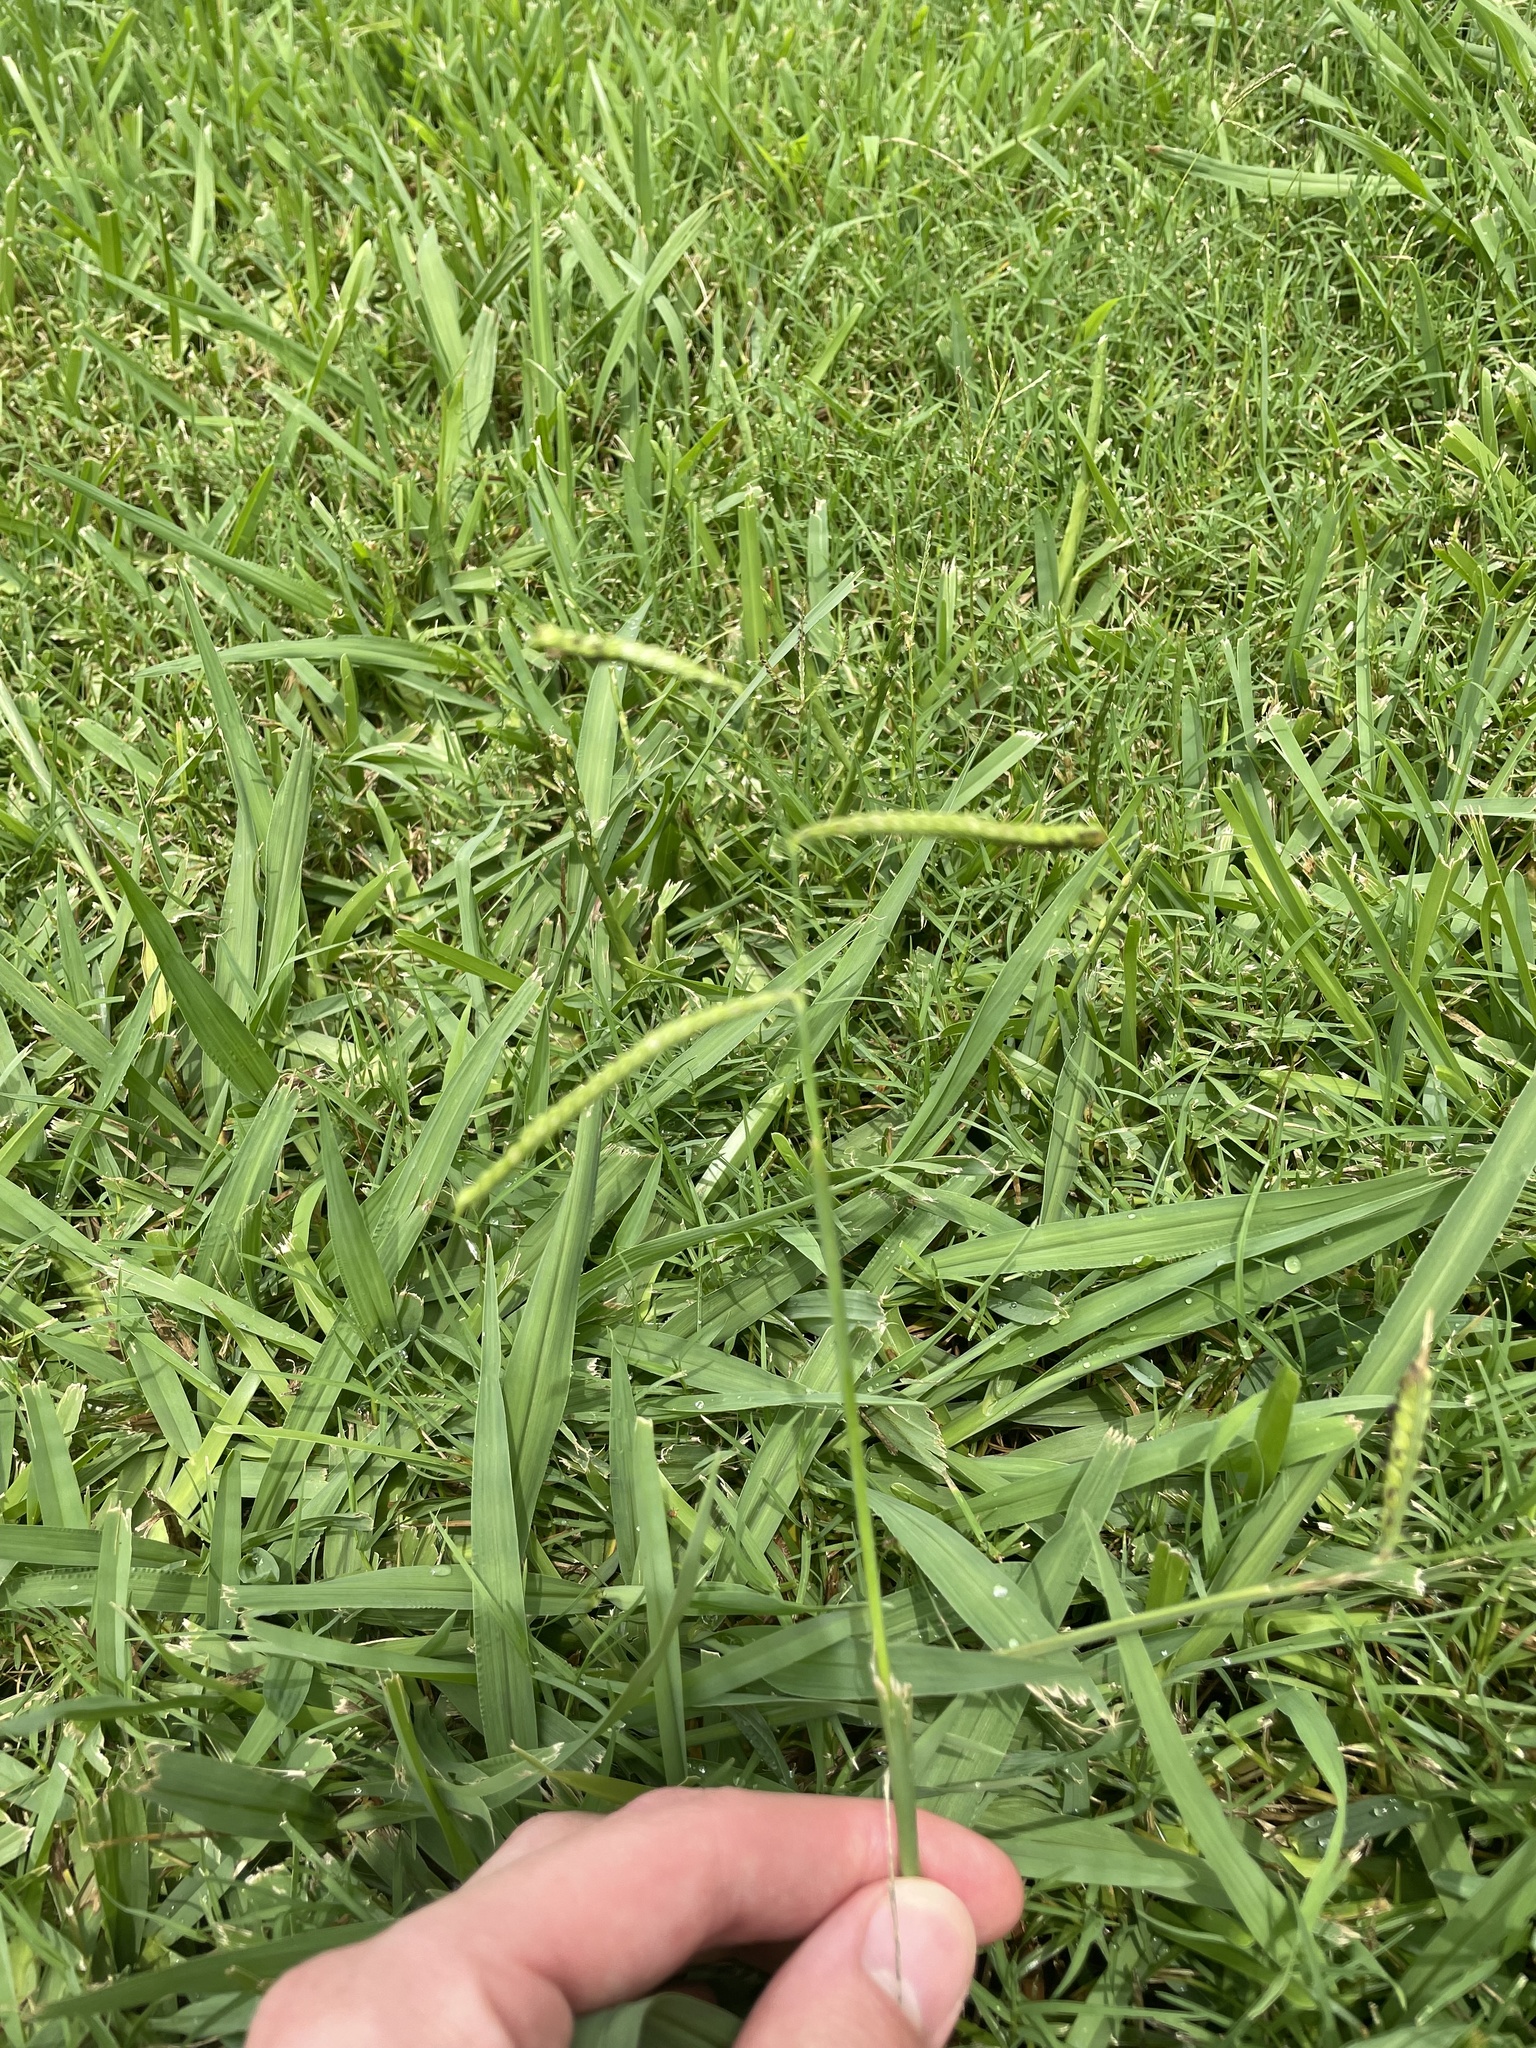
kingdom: Plantae
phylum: Tracheophyta
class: Liliopsida
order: Poales
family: Poaceae
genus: Paspalum
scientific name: Paspalum dilatatum
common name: Dallisgrass
